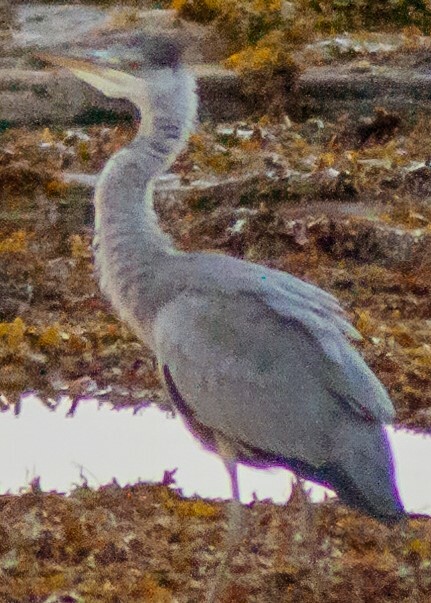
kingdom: Animalia
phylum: Chordata
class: Aves
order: Pelecaniformes
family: Ardeidae
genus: Ardea
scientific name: Ardea cinerea
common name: Grey heron
